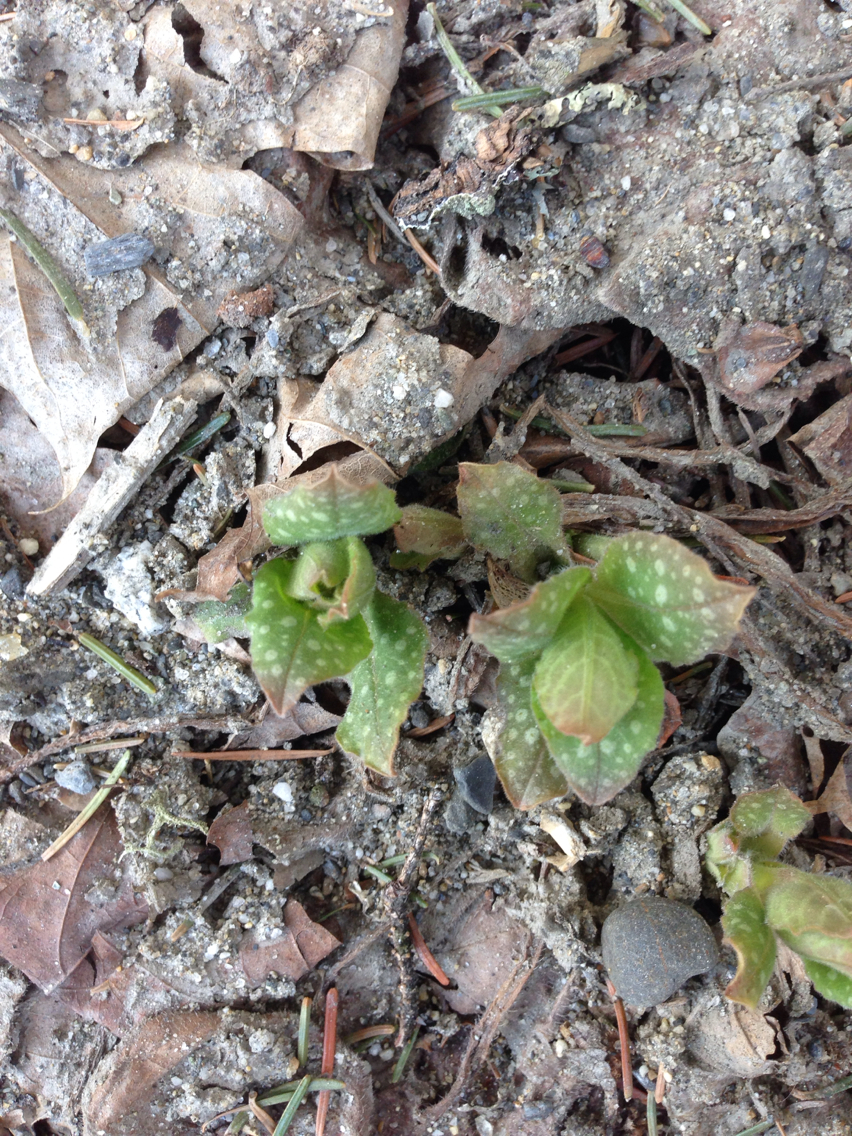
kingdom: Plantae
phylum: Tracheophyta
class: Magnoliopsida
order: Boraginales
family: Boraginaceae
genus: Pulmonaria
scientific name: Pulmonaria officinalis
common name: Lungwort
